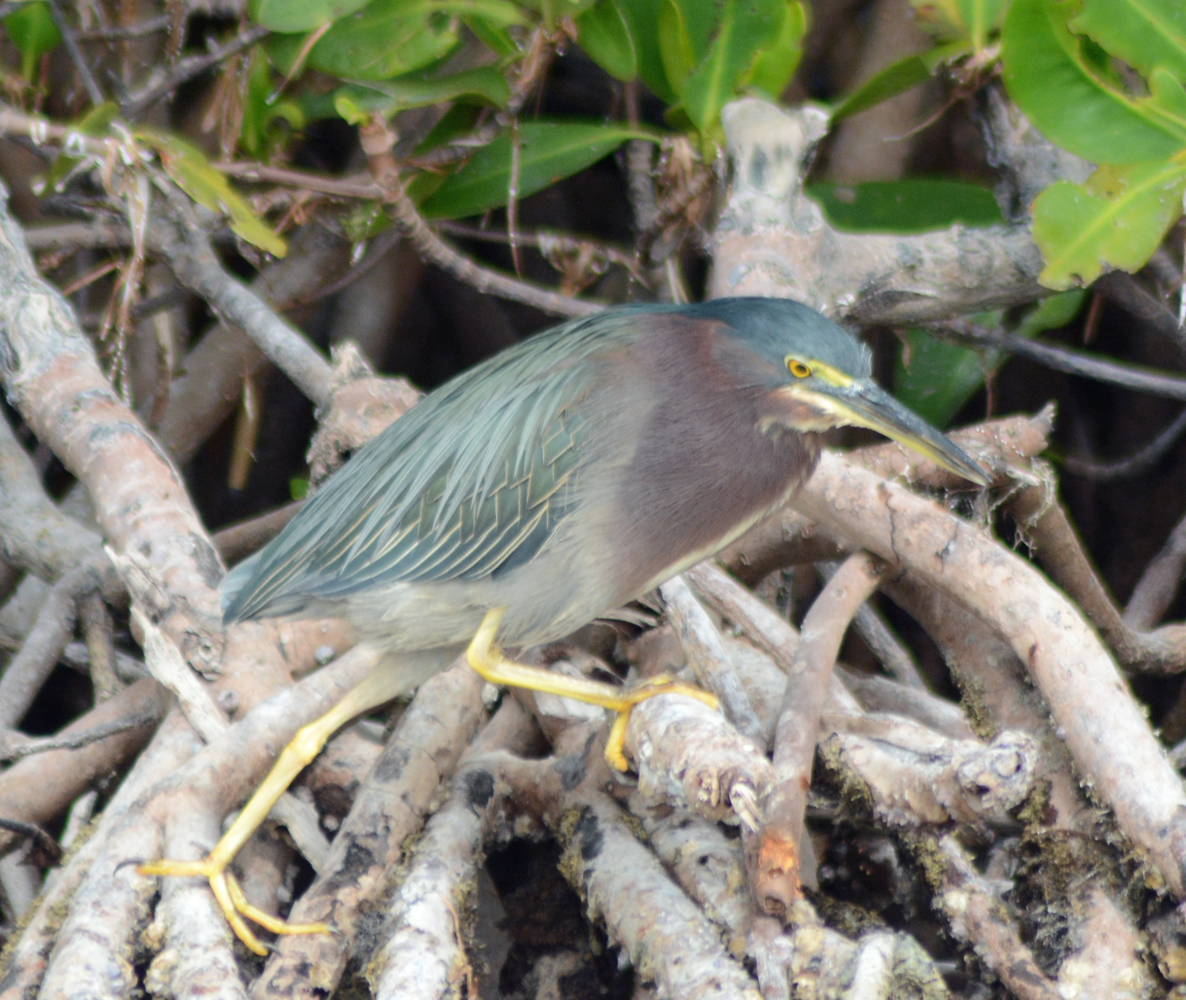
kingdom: Animalia
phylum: Chordata
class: Aves
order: Pelecaniformes
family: Ardeidae
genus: Butorides
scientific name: Butorides virescens
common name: Green heron
